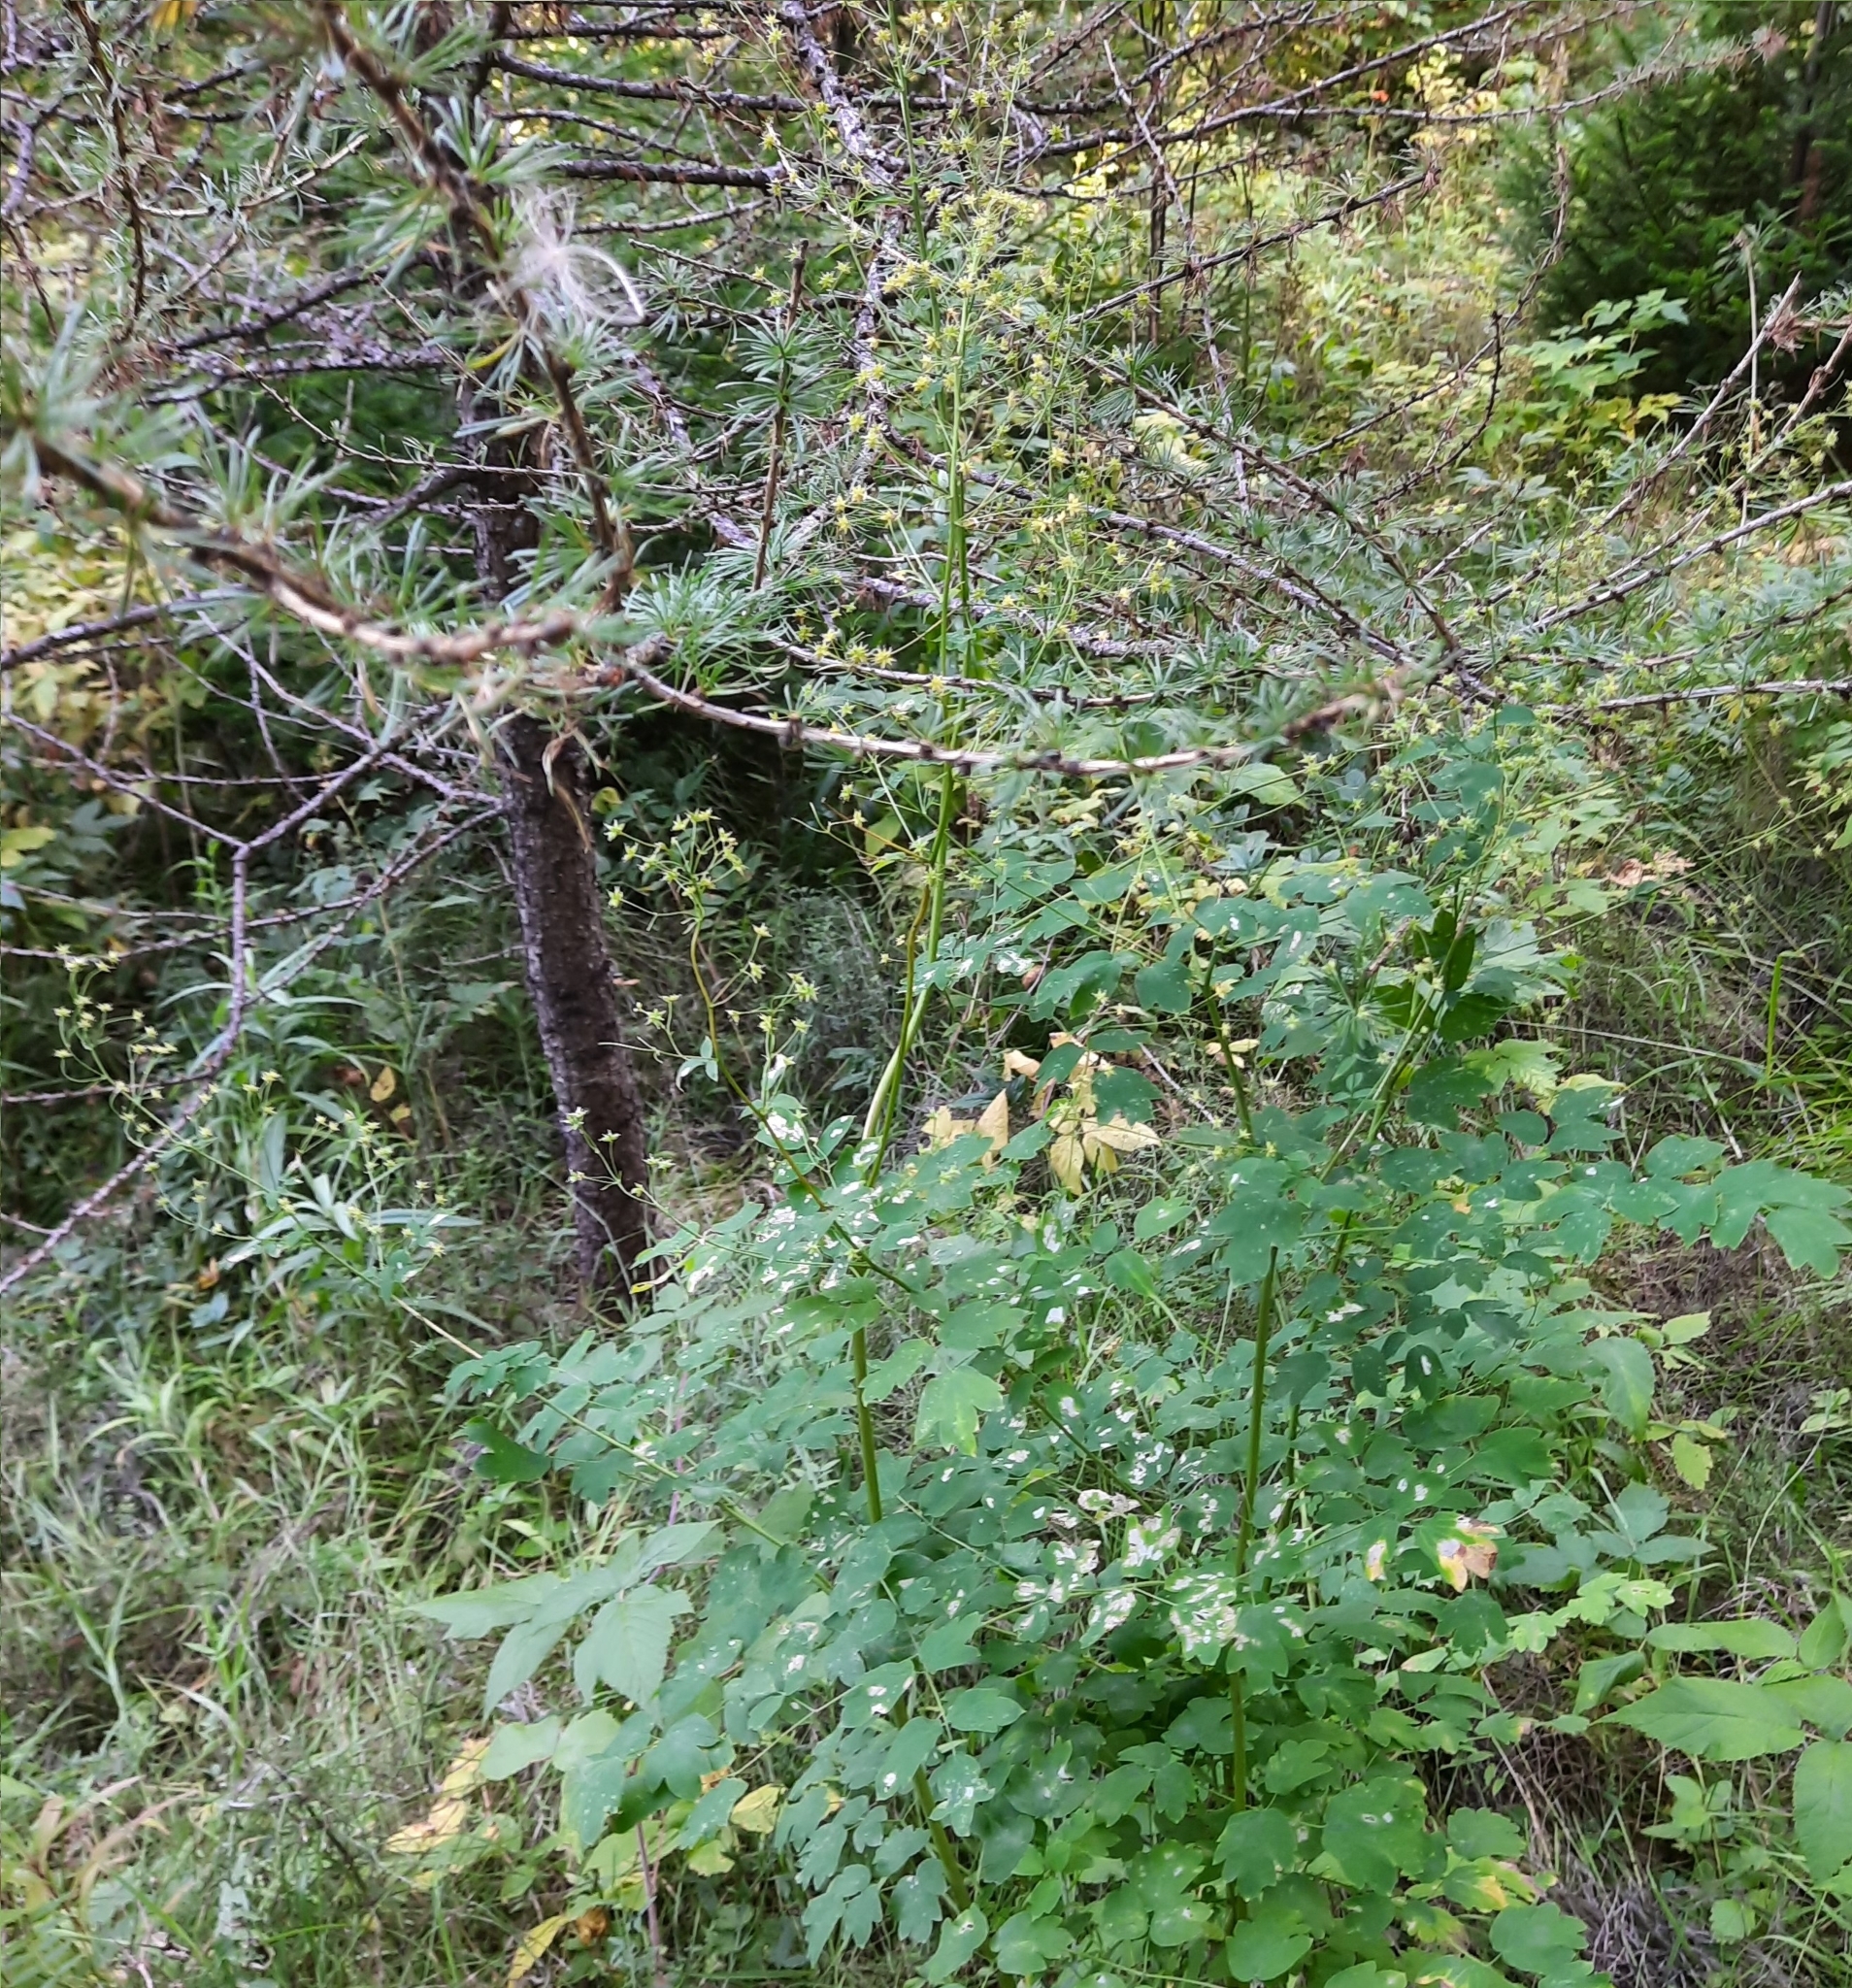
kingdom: Plantae
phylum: Tracheophyta
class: Magnoliopsida
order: Ranunculales
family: Ranunculaceae
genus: Thalictrum
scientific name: Thalictrum minus
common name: Lesser meadow-rue
